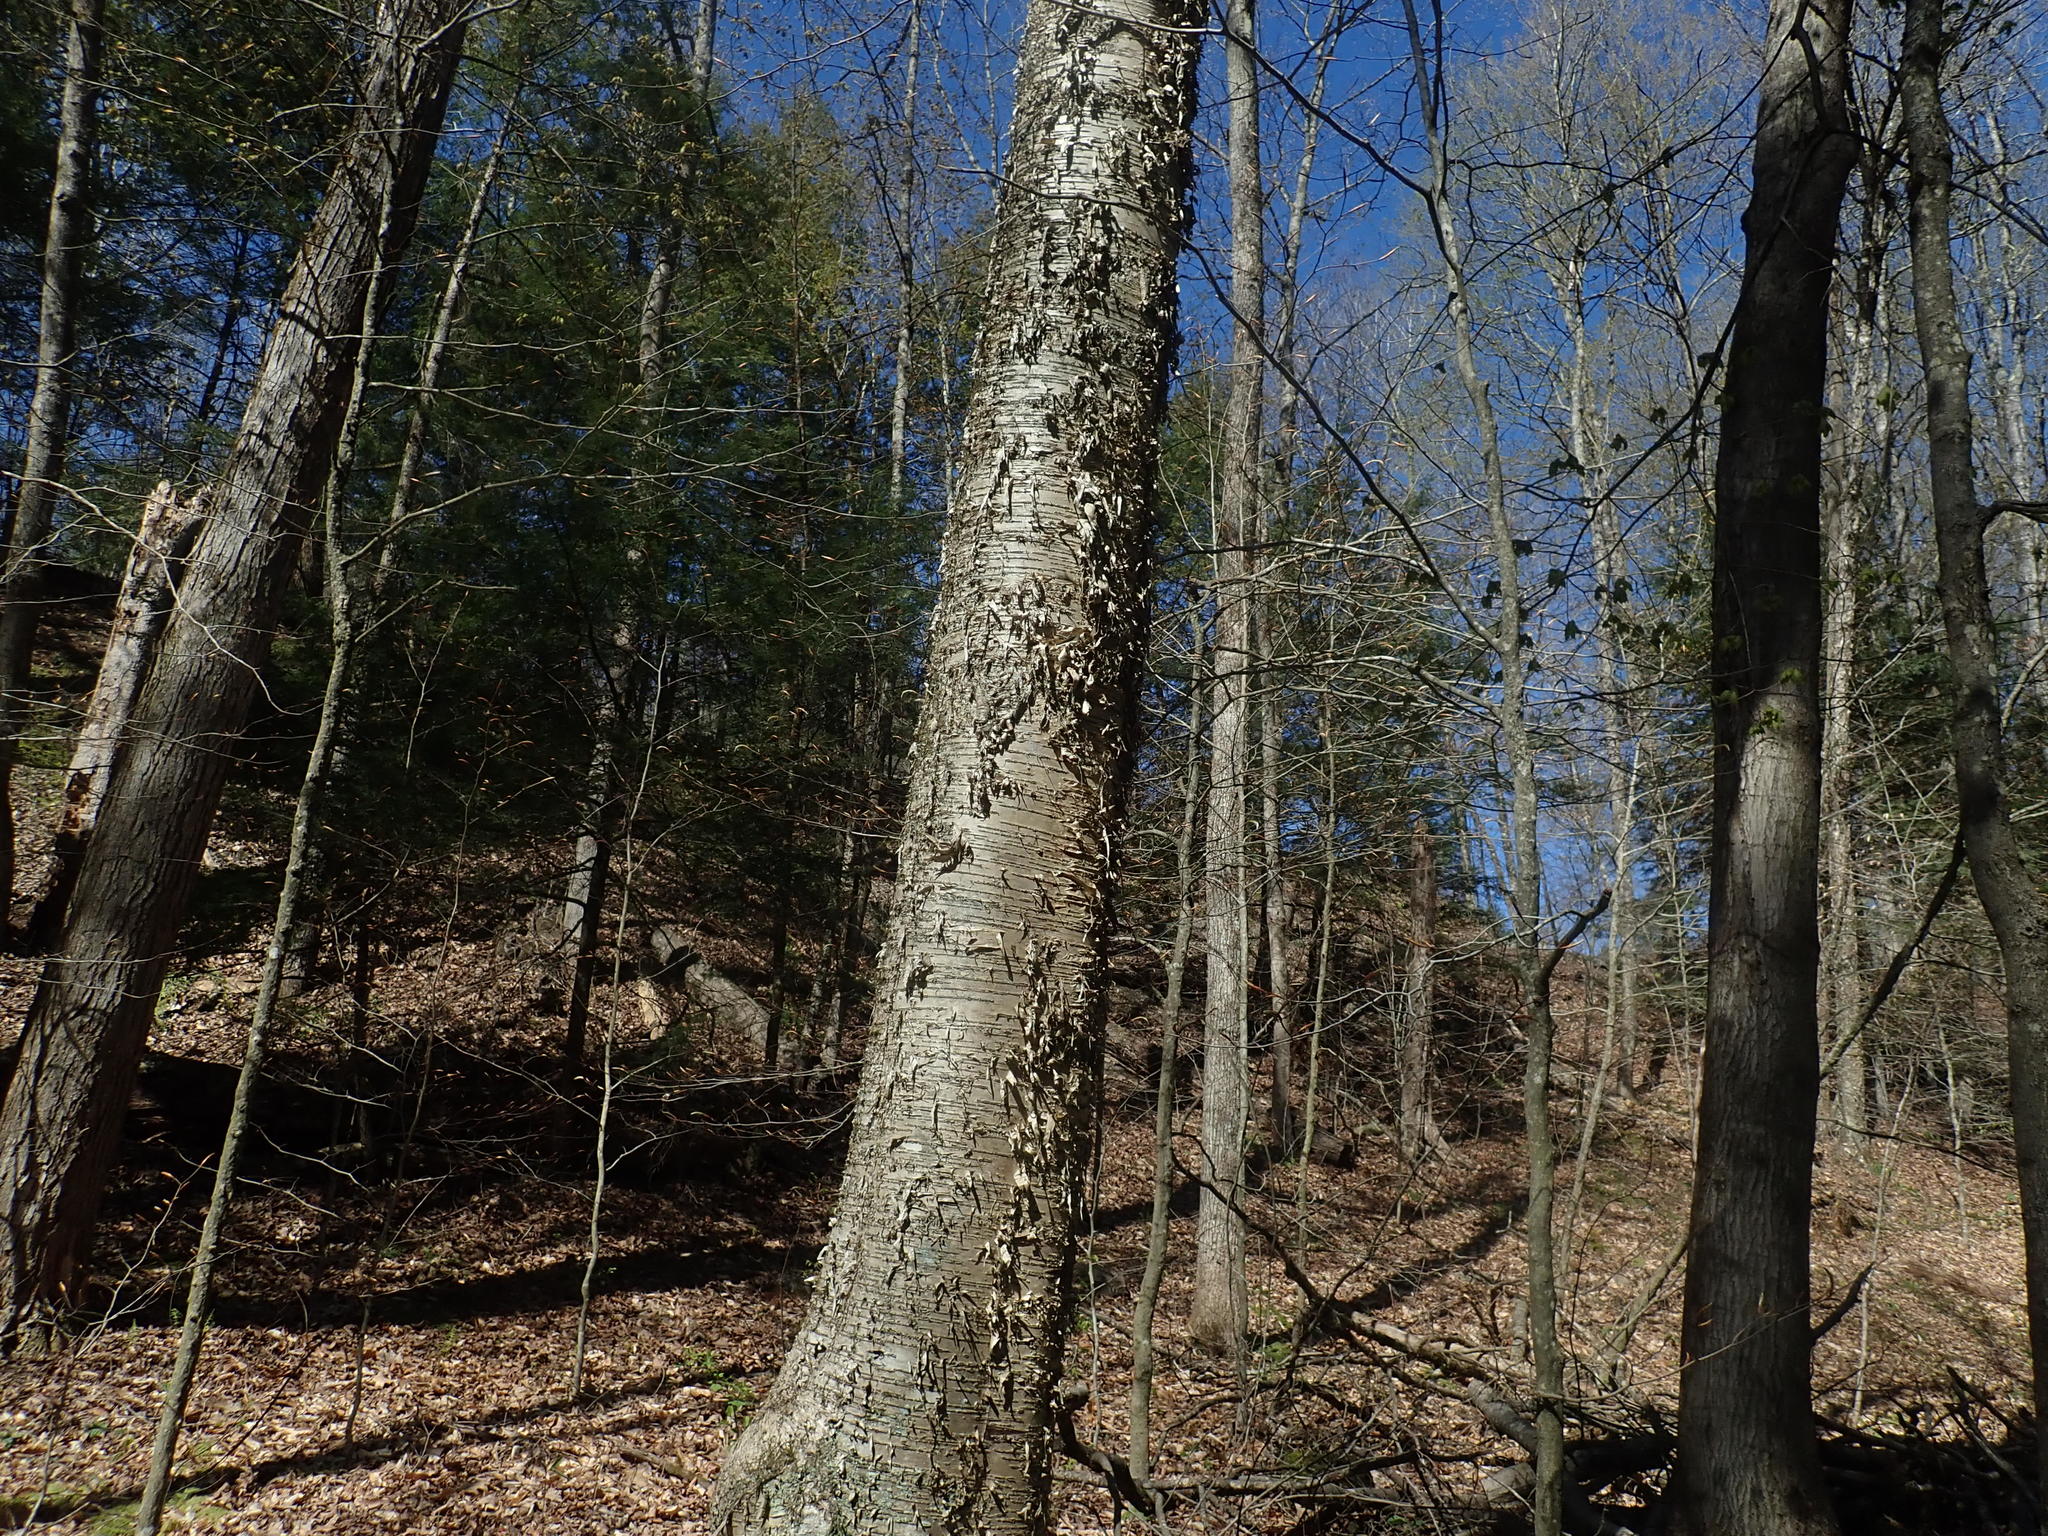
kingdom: Plantae
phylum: Tracheophyta
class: Magnoliopsida
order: Fagales
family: Betulaceae
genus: Betula
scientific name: Betula alleghaniensis
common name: Yellow birch
